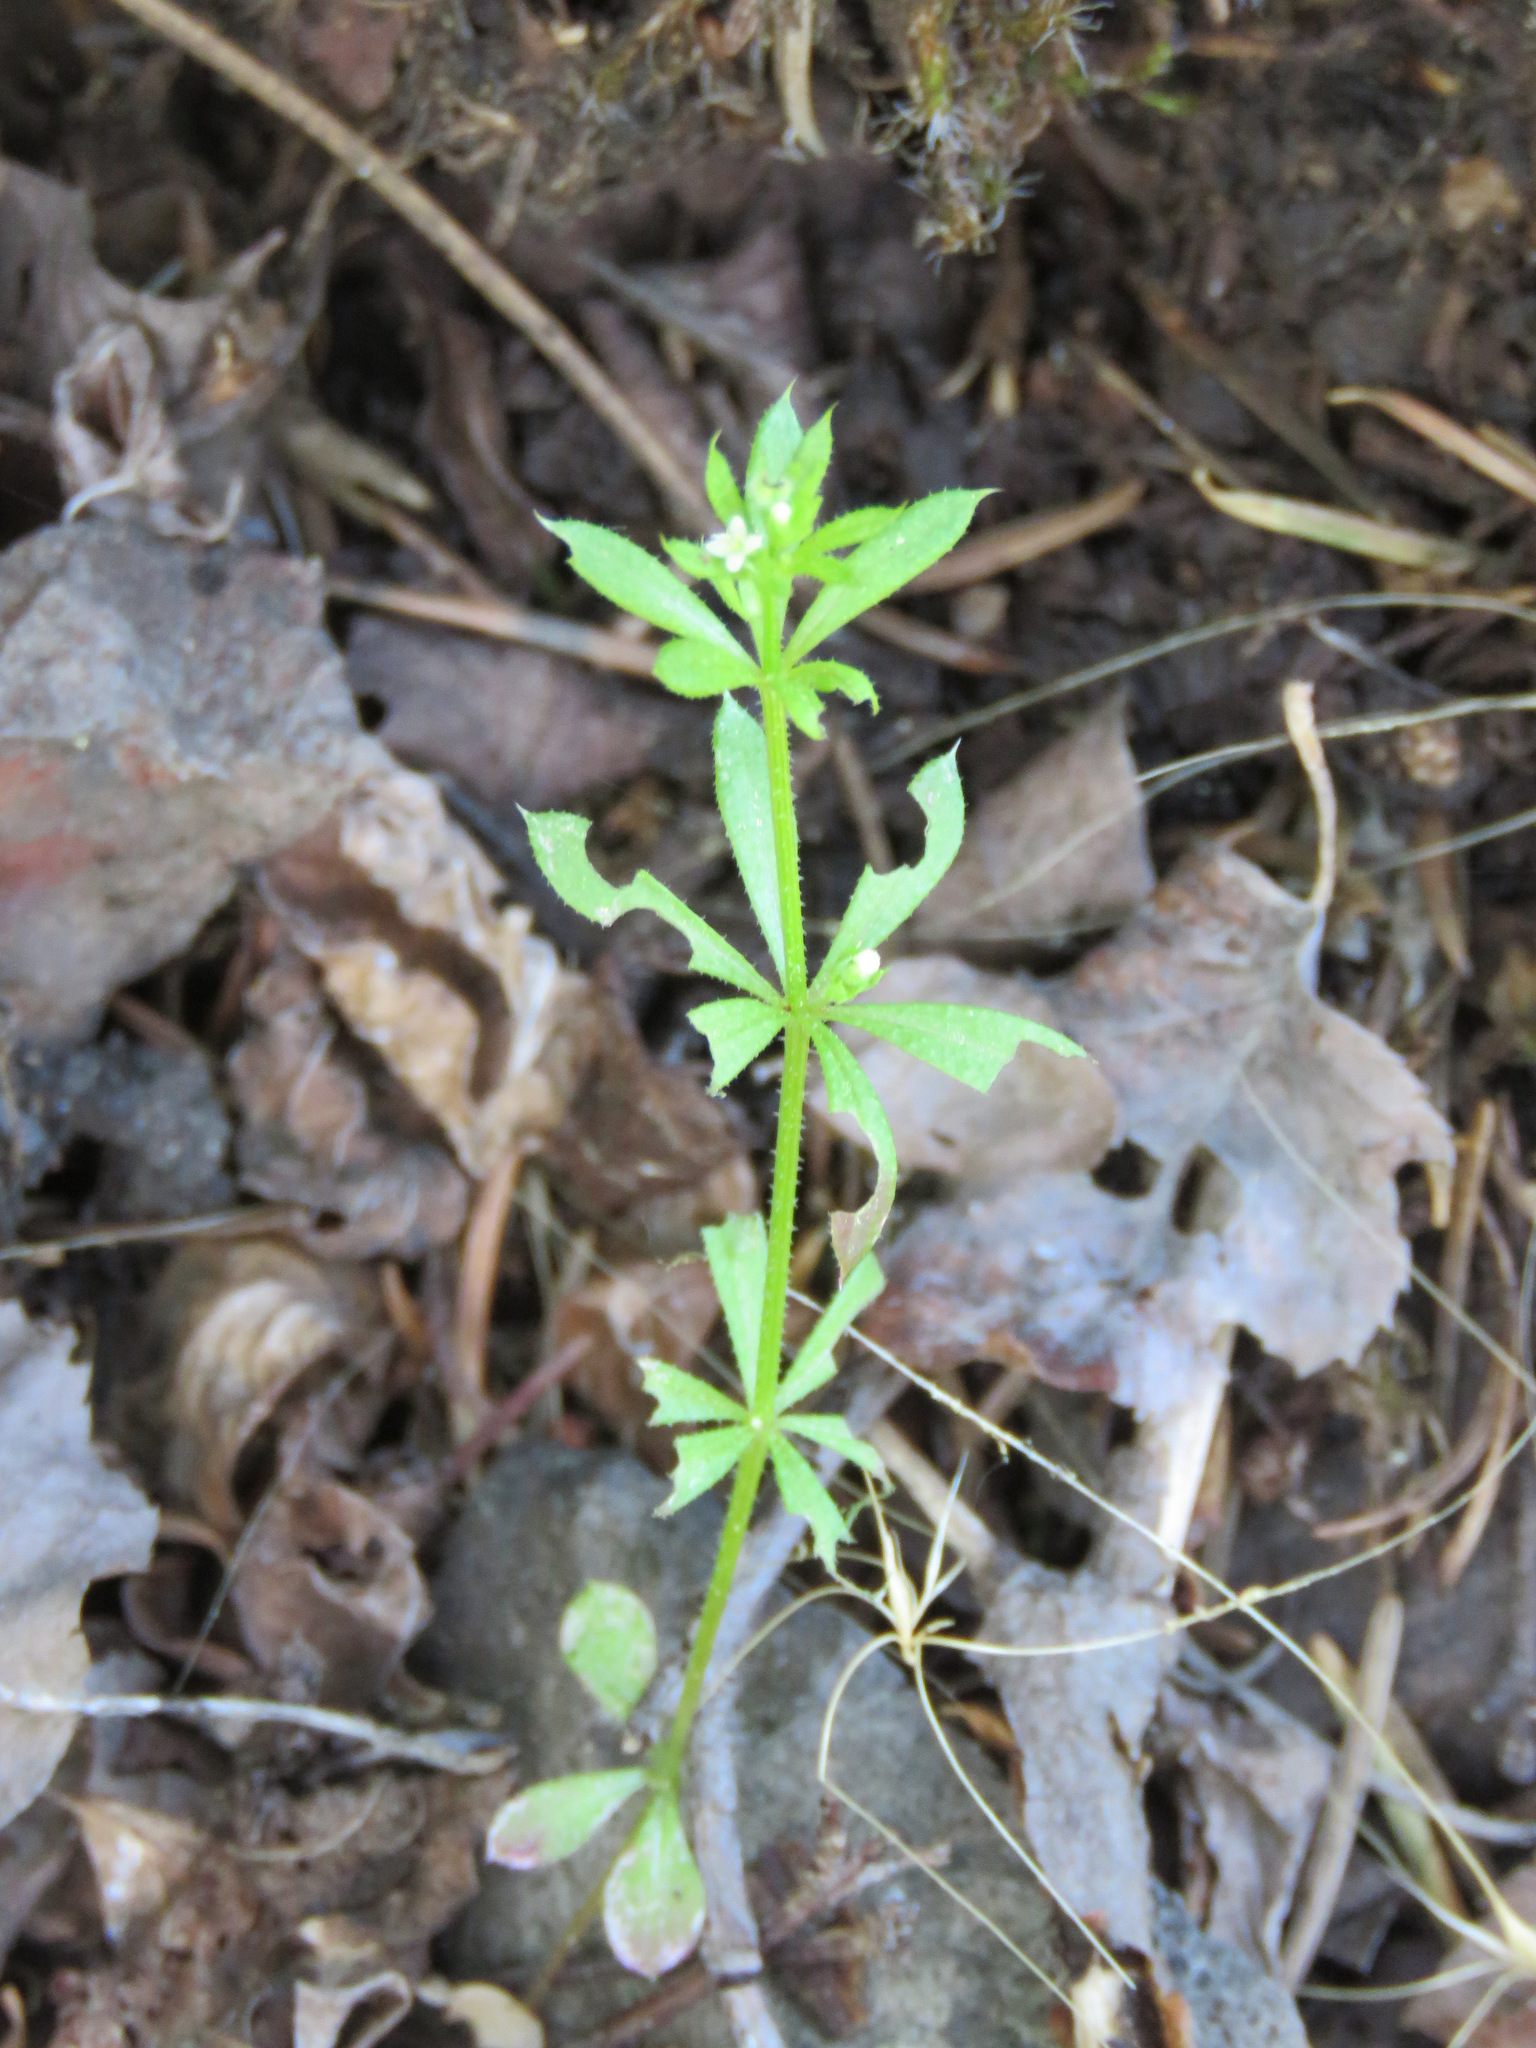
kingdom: Plantae
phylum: Tracheophyta
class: Magnoliopsida
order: Gentianales
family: Rubiaceae
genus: Galium
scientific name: Galium aparine
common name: Cleavers
